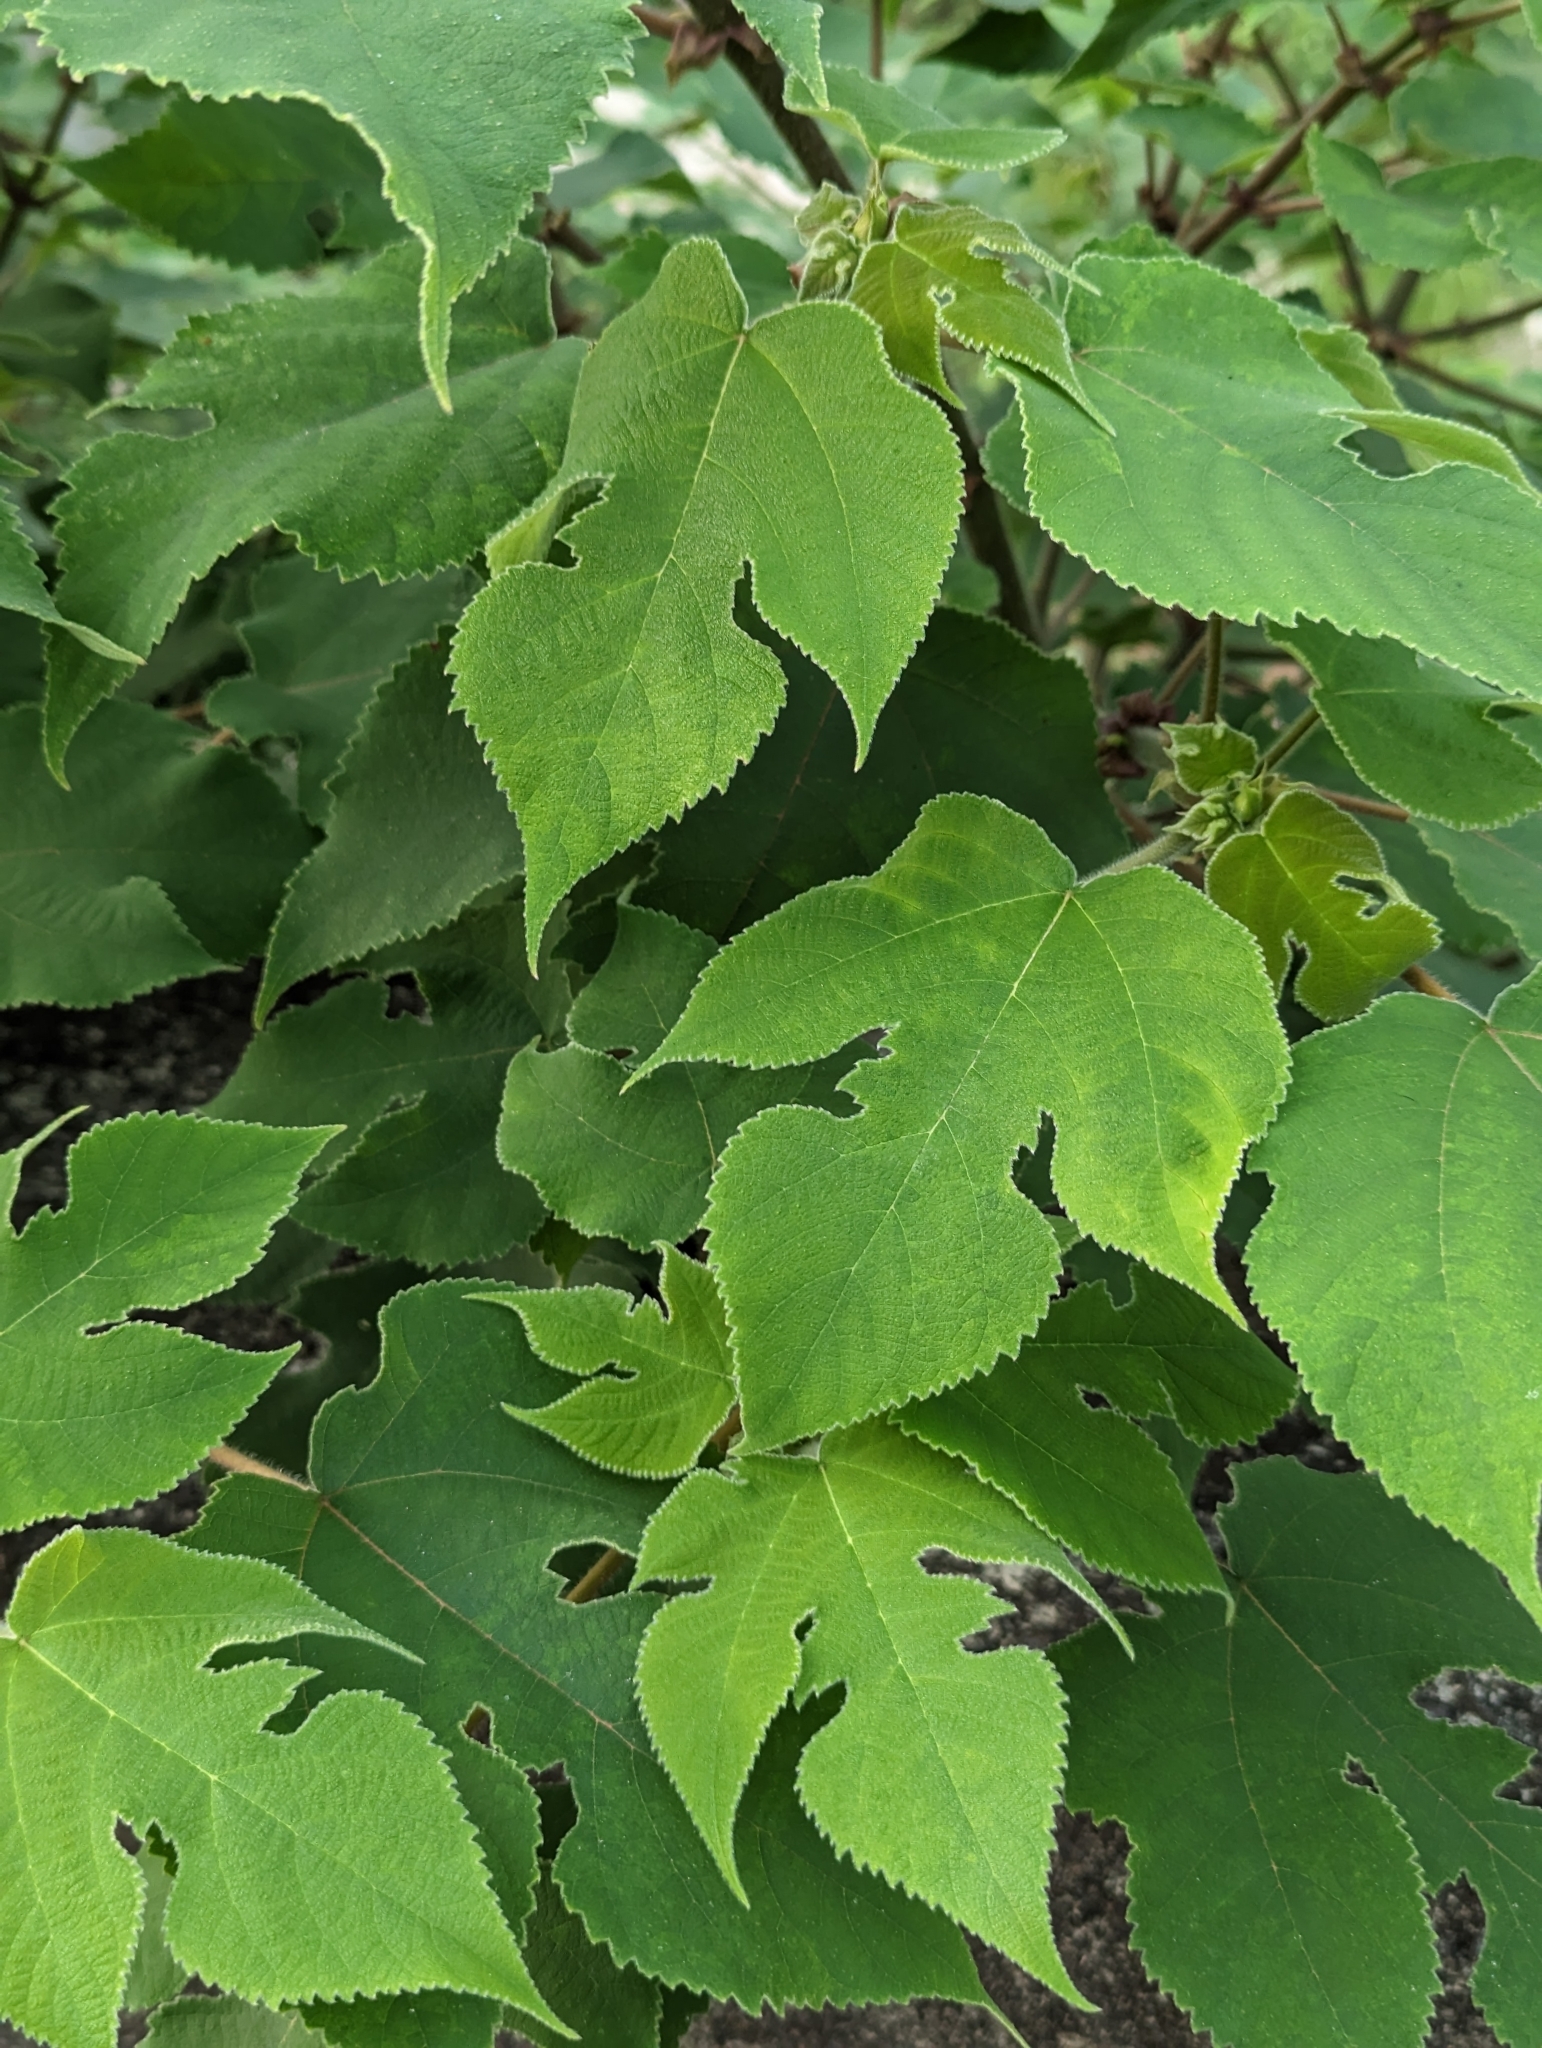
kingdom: Plantae
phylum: Tracheophyta
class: Magnoliopsida
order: Rosales
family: Moraceae
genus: Broussonetia
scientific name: Broussonetia papyrifera
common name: Paper mulberry
